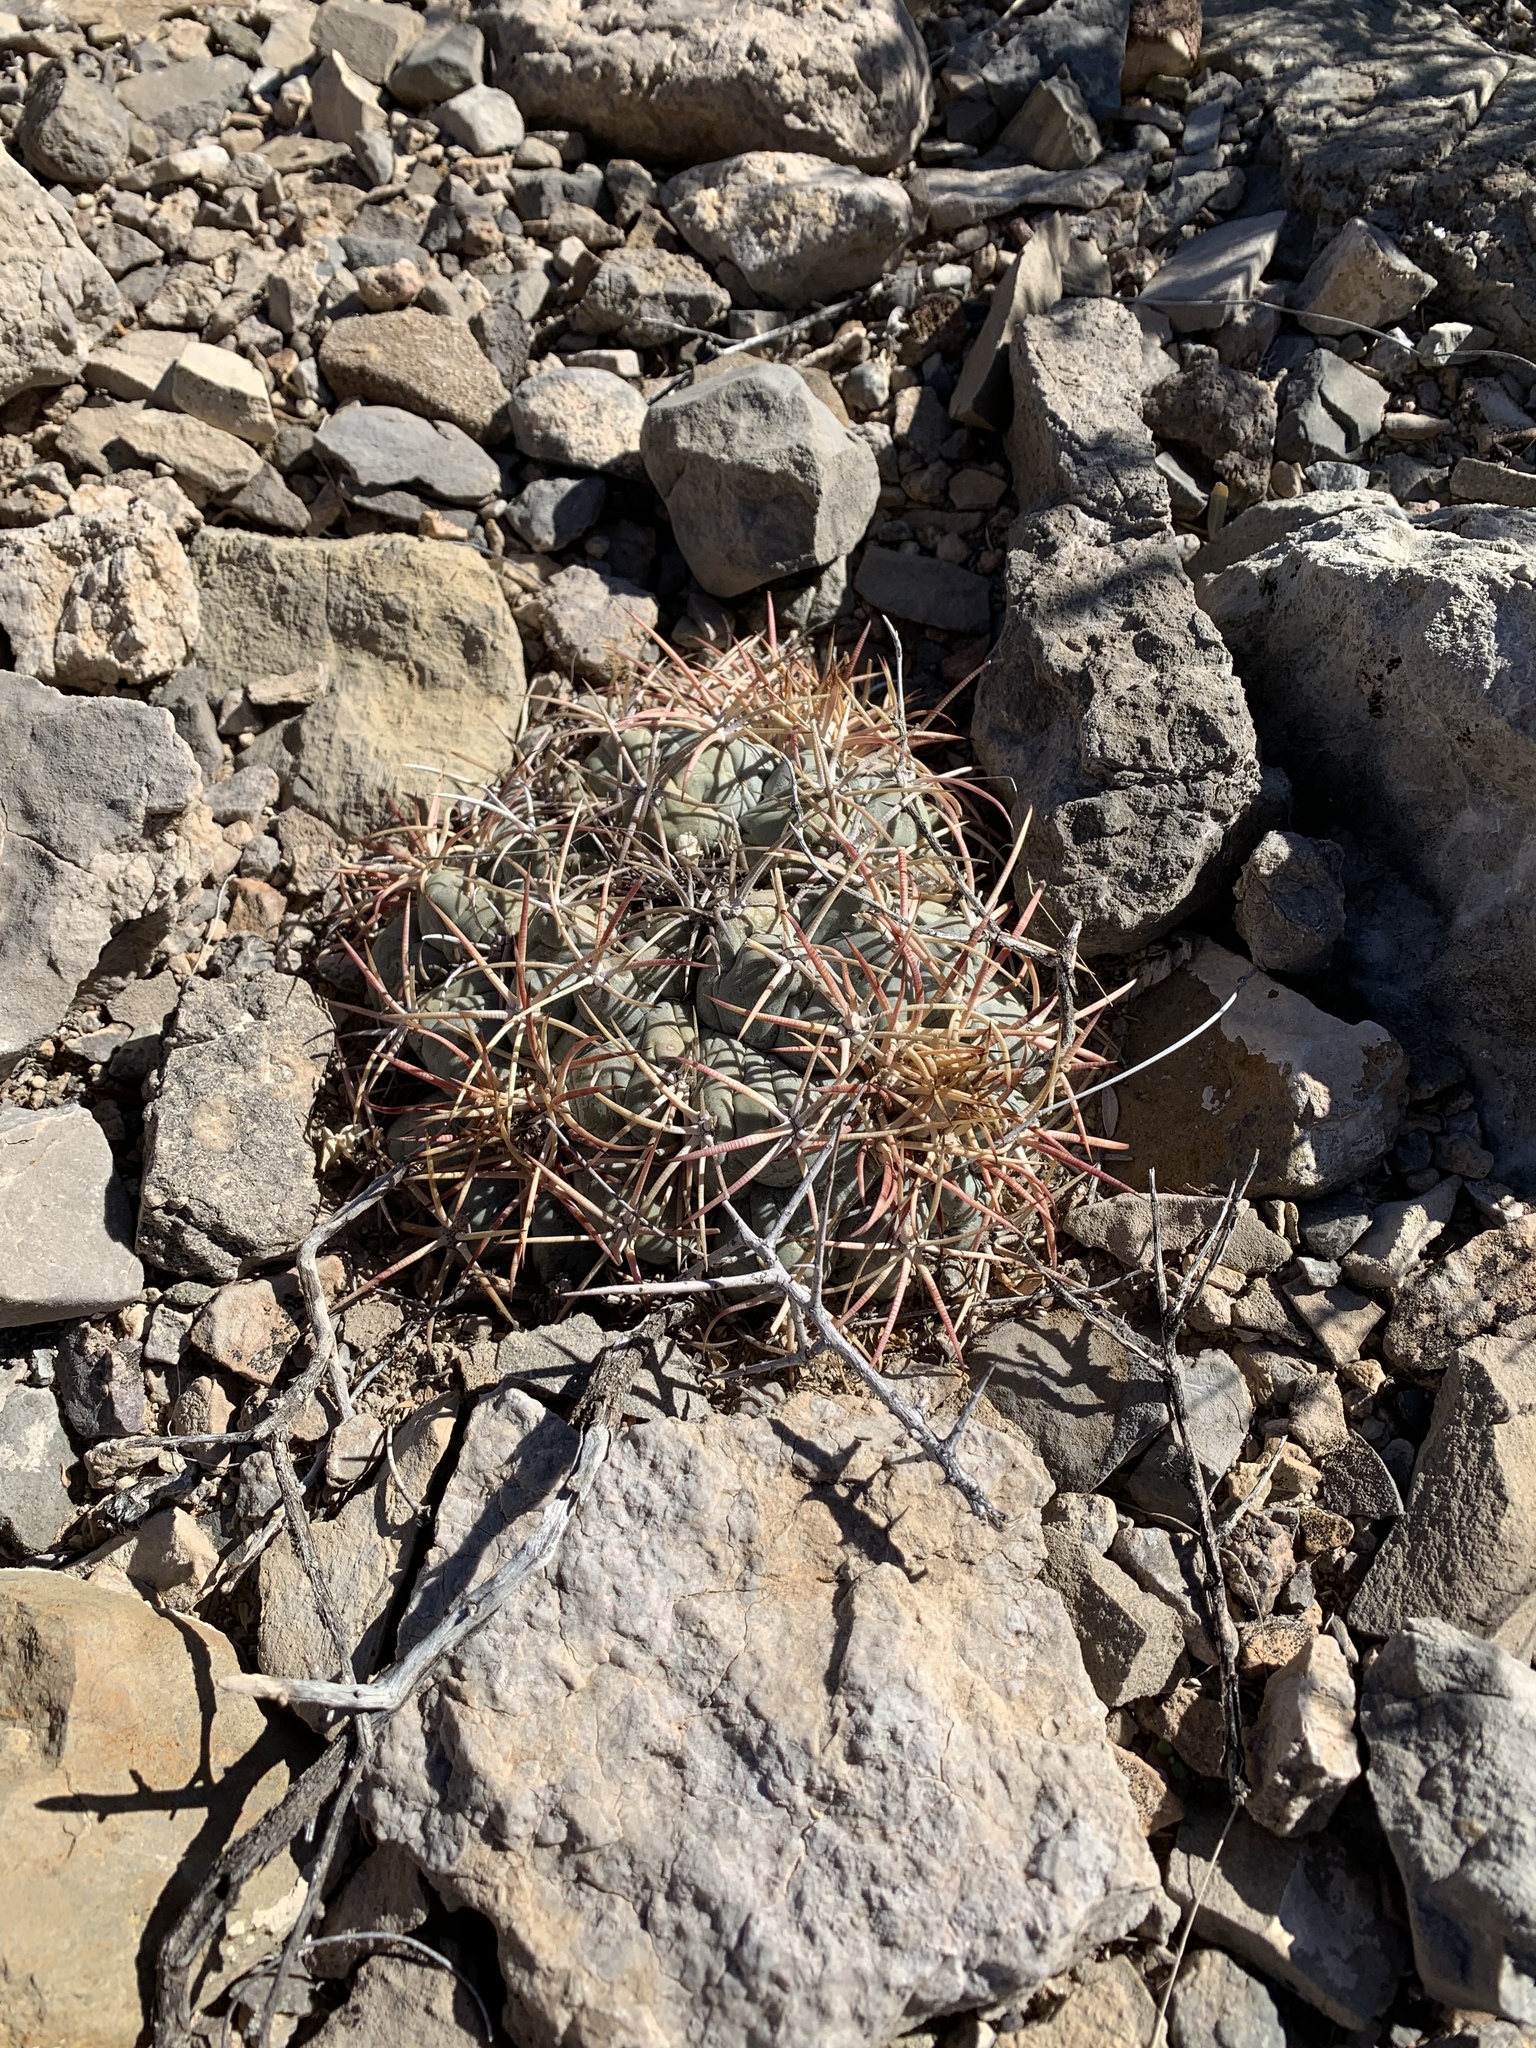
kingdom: Plantae
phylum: Tracheophyta
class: Magnoliopsida
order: Caryophyllales
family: Cactaceae
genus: Echinocactus
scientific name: Echinocactus horizonthalonius
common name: Devilshead
